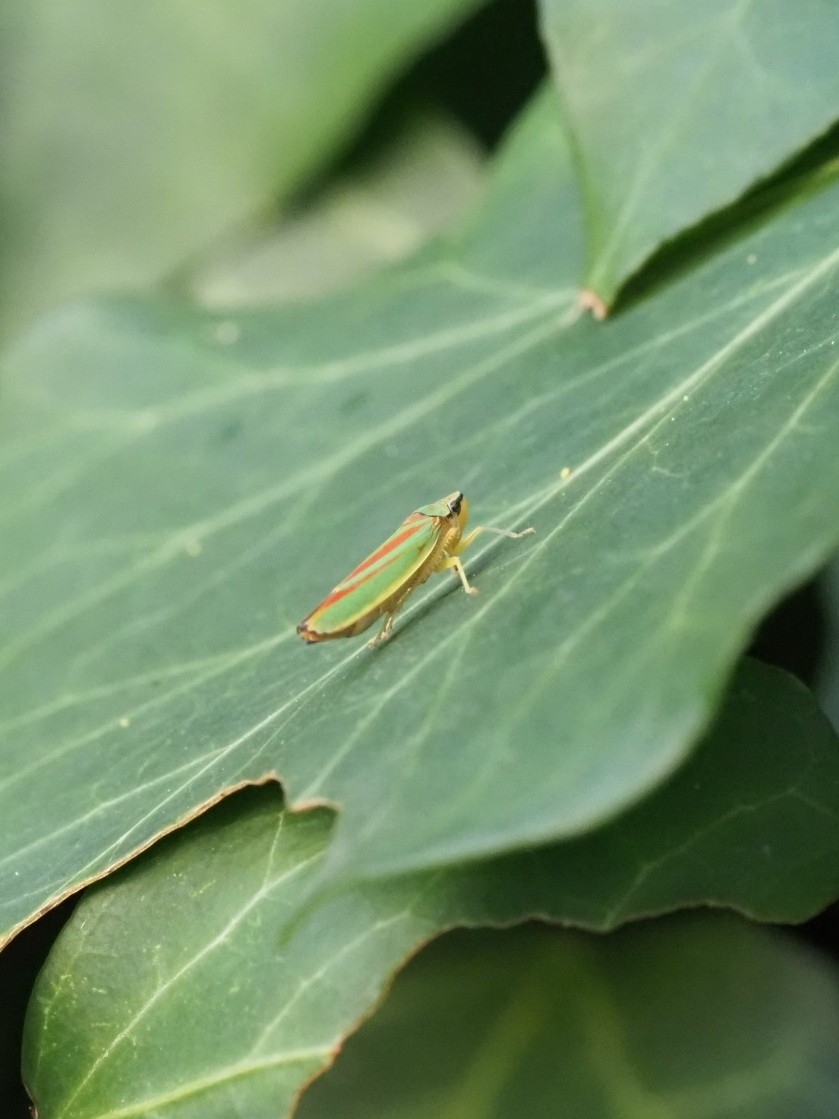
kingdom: Animalia
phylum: Arthropoda
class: Insecta
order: Hemiptera
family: Cicadellidae
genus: Graphocephala
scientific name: Graphocephala fennahi
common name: Rhododendron leafhopper
